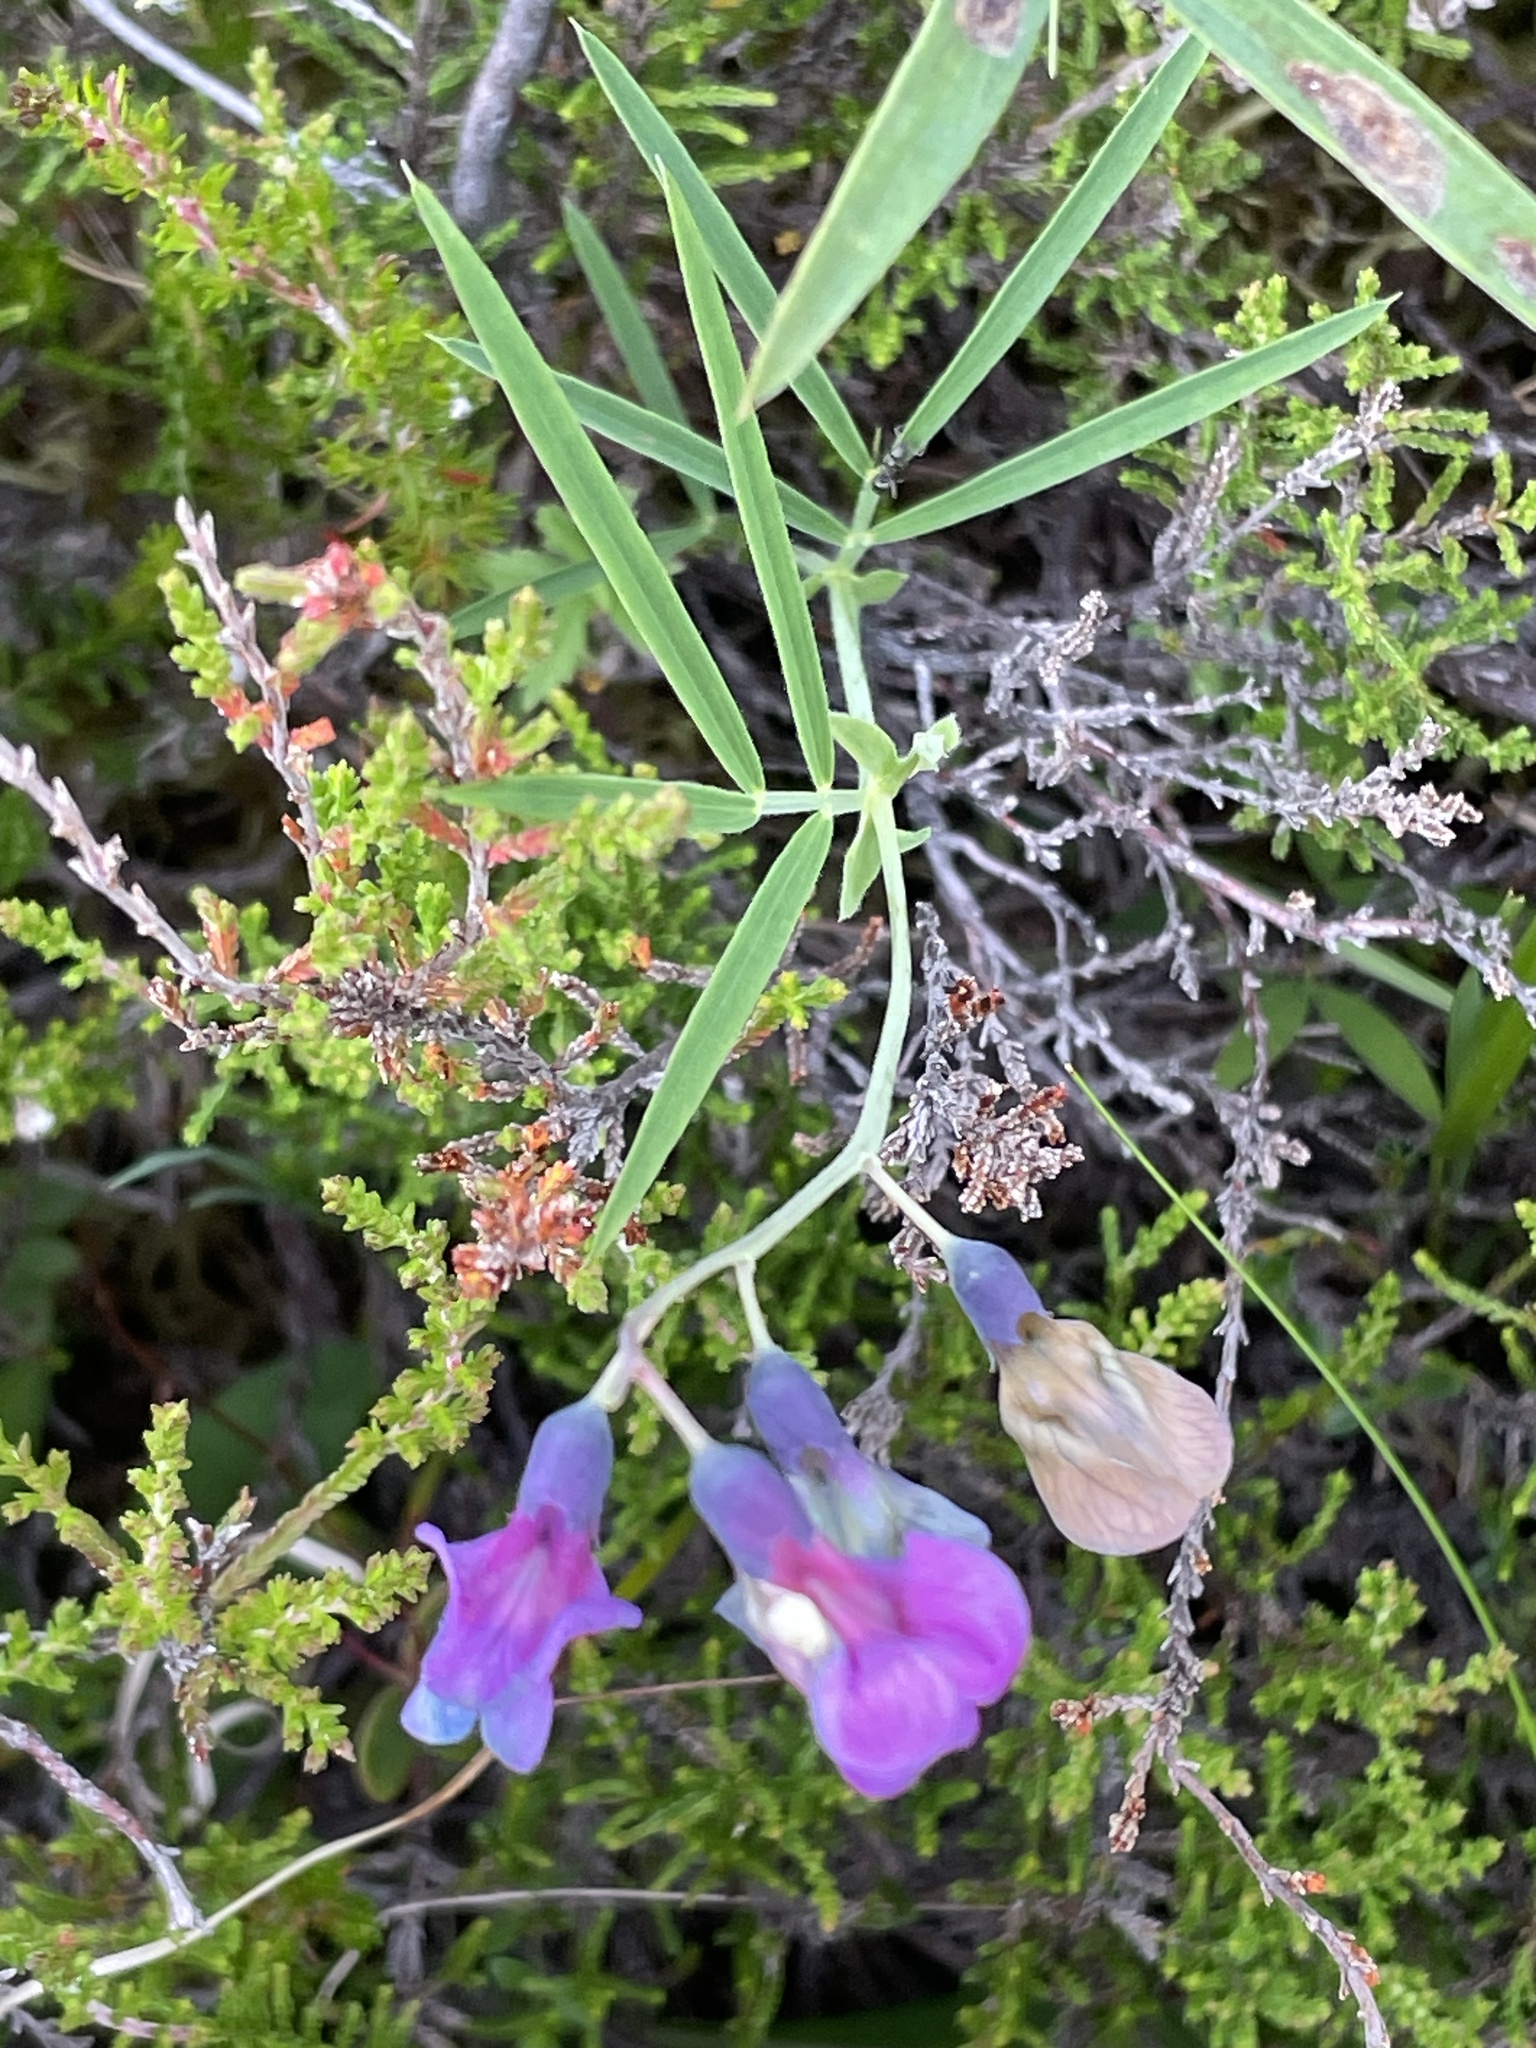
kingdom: Plantae
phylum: Tracheophyta
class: Magnoliopsida
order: Fabales
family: Fabaceae
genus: Lathyrus
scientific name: Lathyrus linifolius
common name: Bitter-vetch
